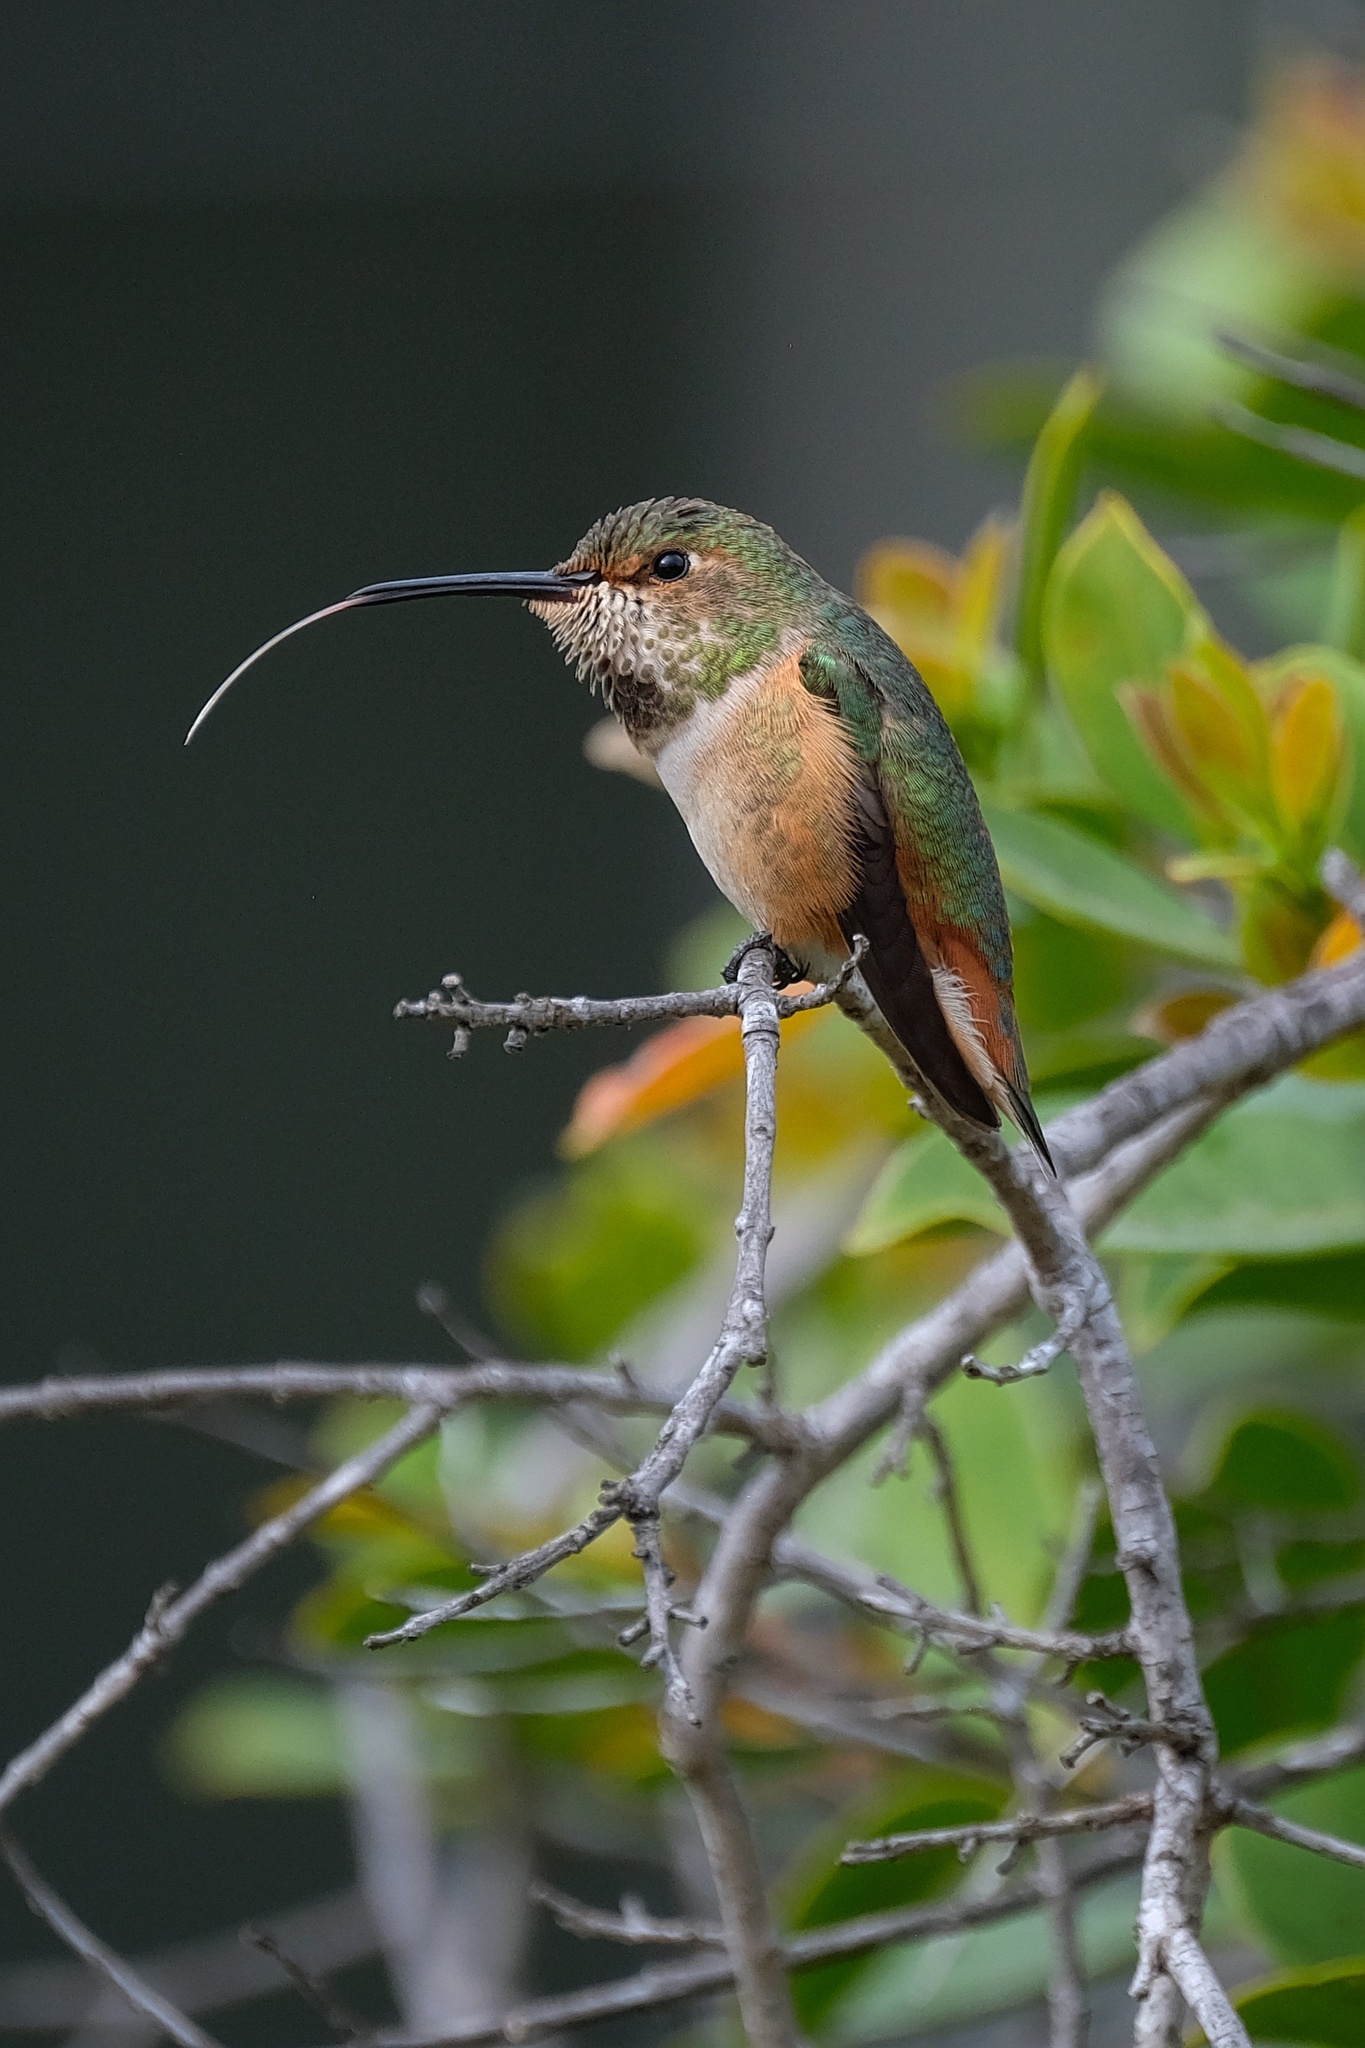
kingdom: Animalia
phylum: Chordata
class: Aves
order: Apodiformes
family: Trochilidae
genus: Selasphorus
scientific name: Selasphorus sasin
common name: Allen's hummingbird
